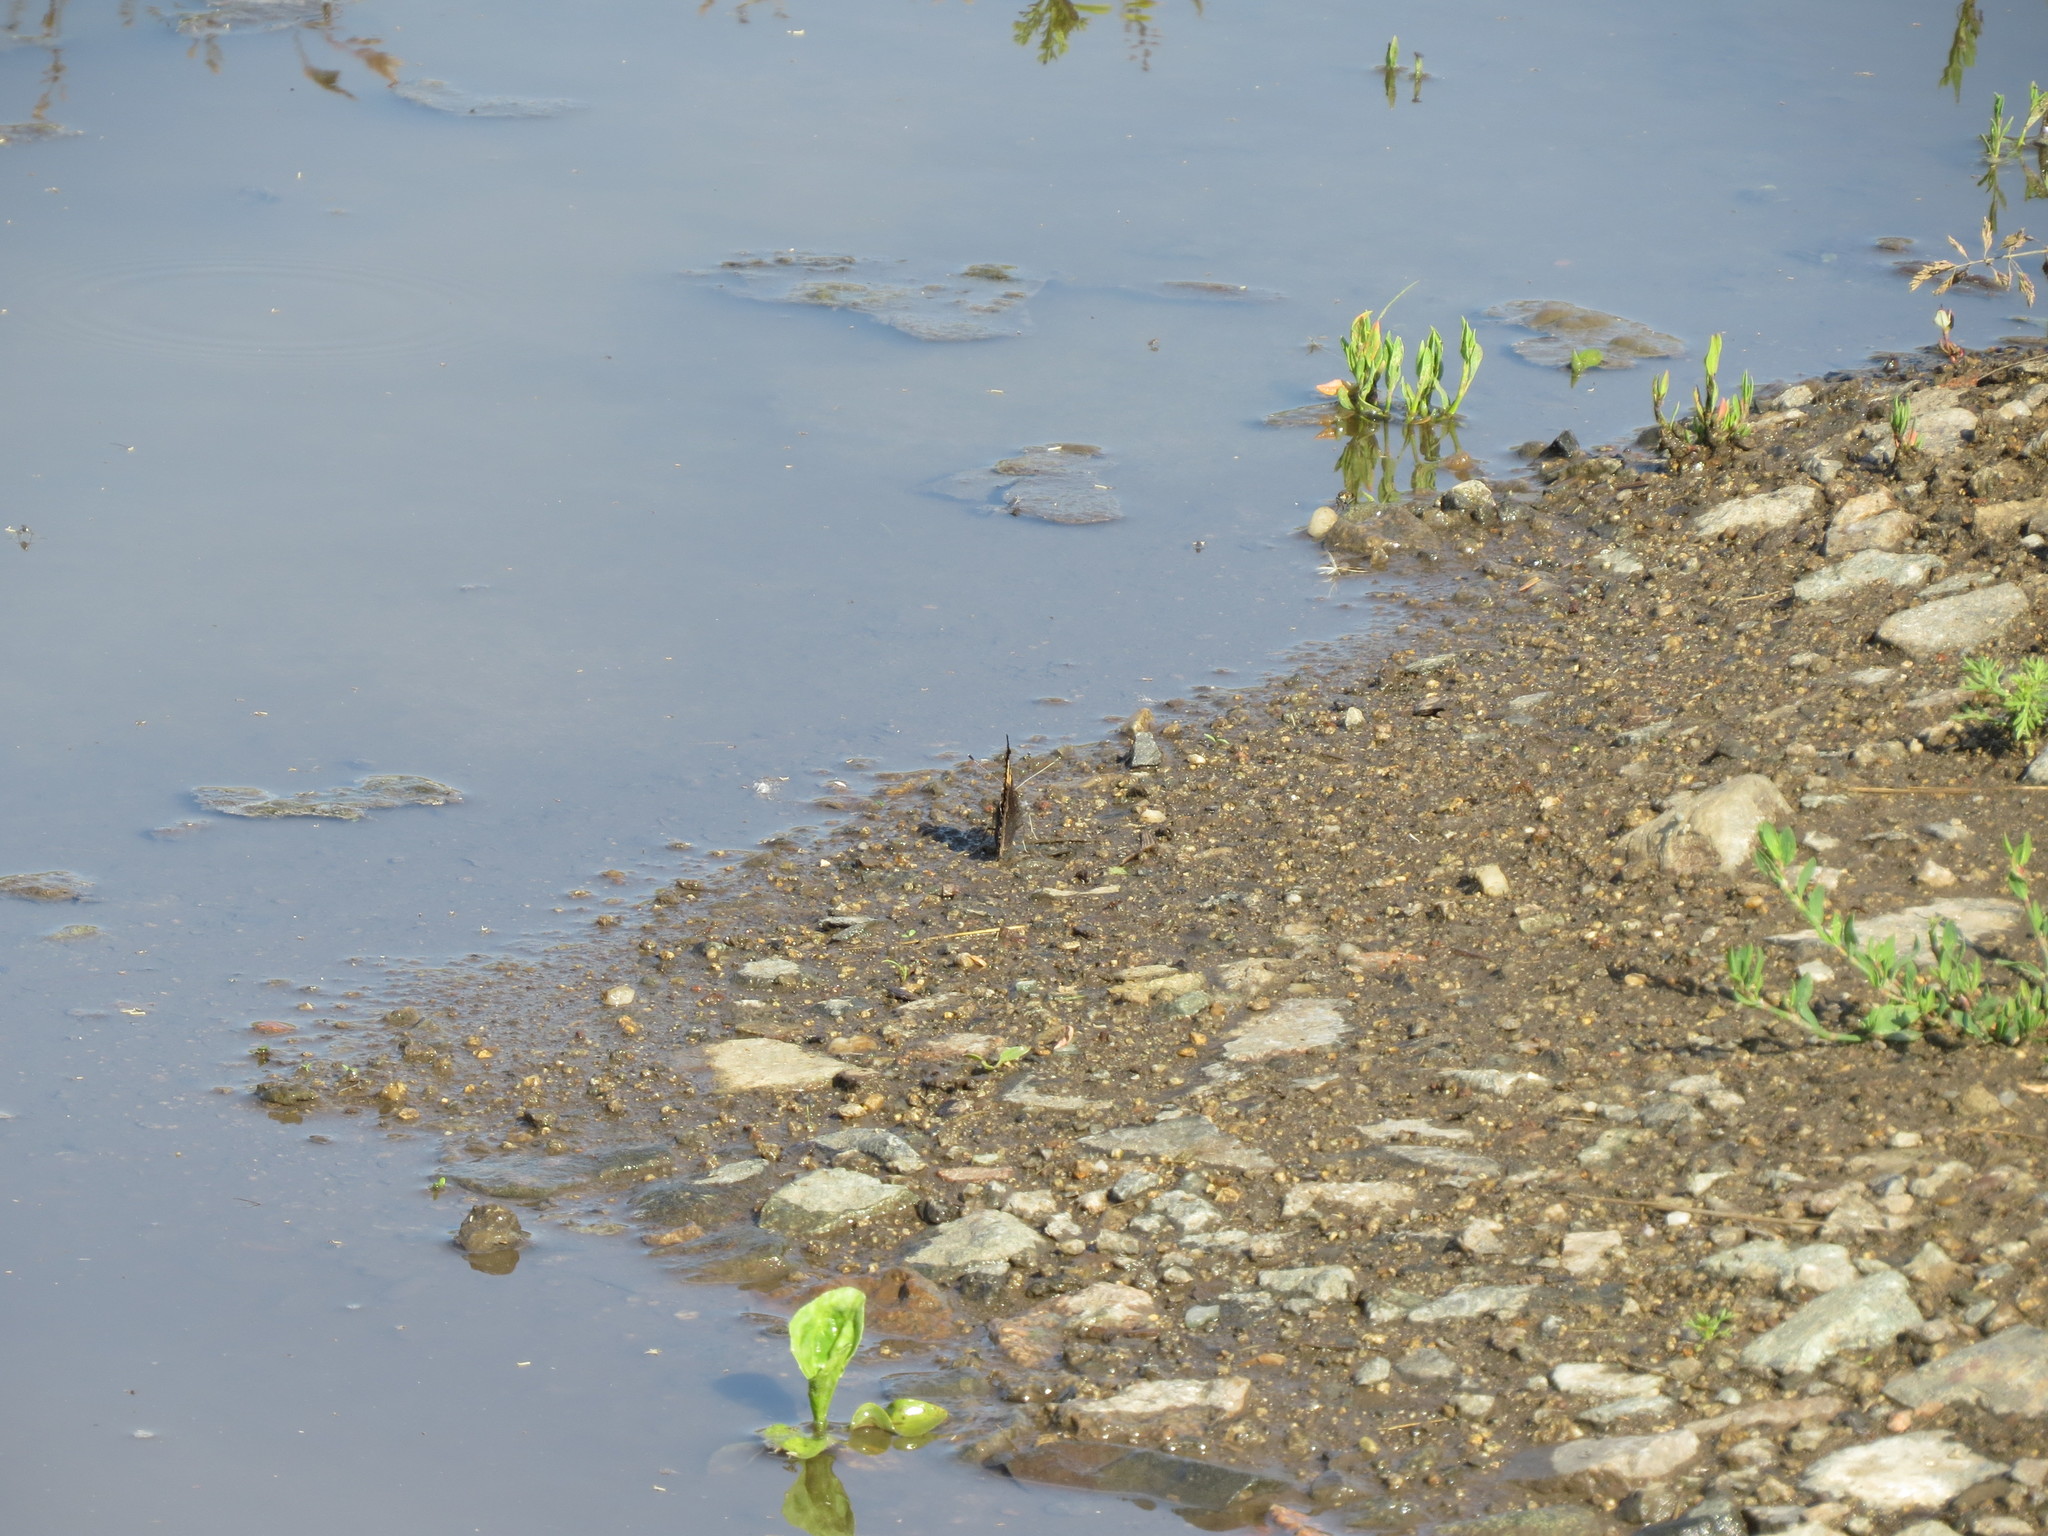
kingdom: Animalia
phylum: Arthropoda
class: Insecta
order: Lepidoptera
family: Nymphalidae
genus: Aglais
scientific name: Aglais urticae
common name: Small tortoiseshell
